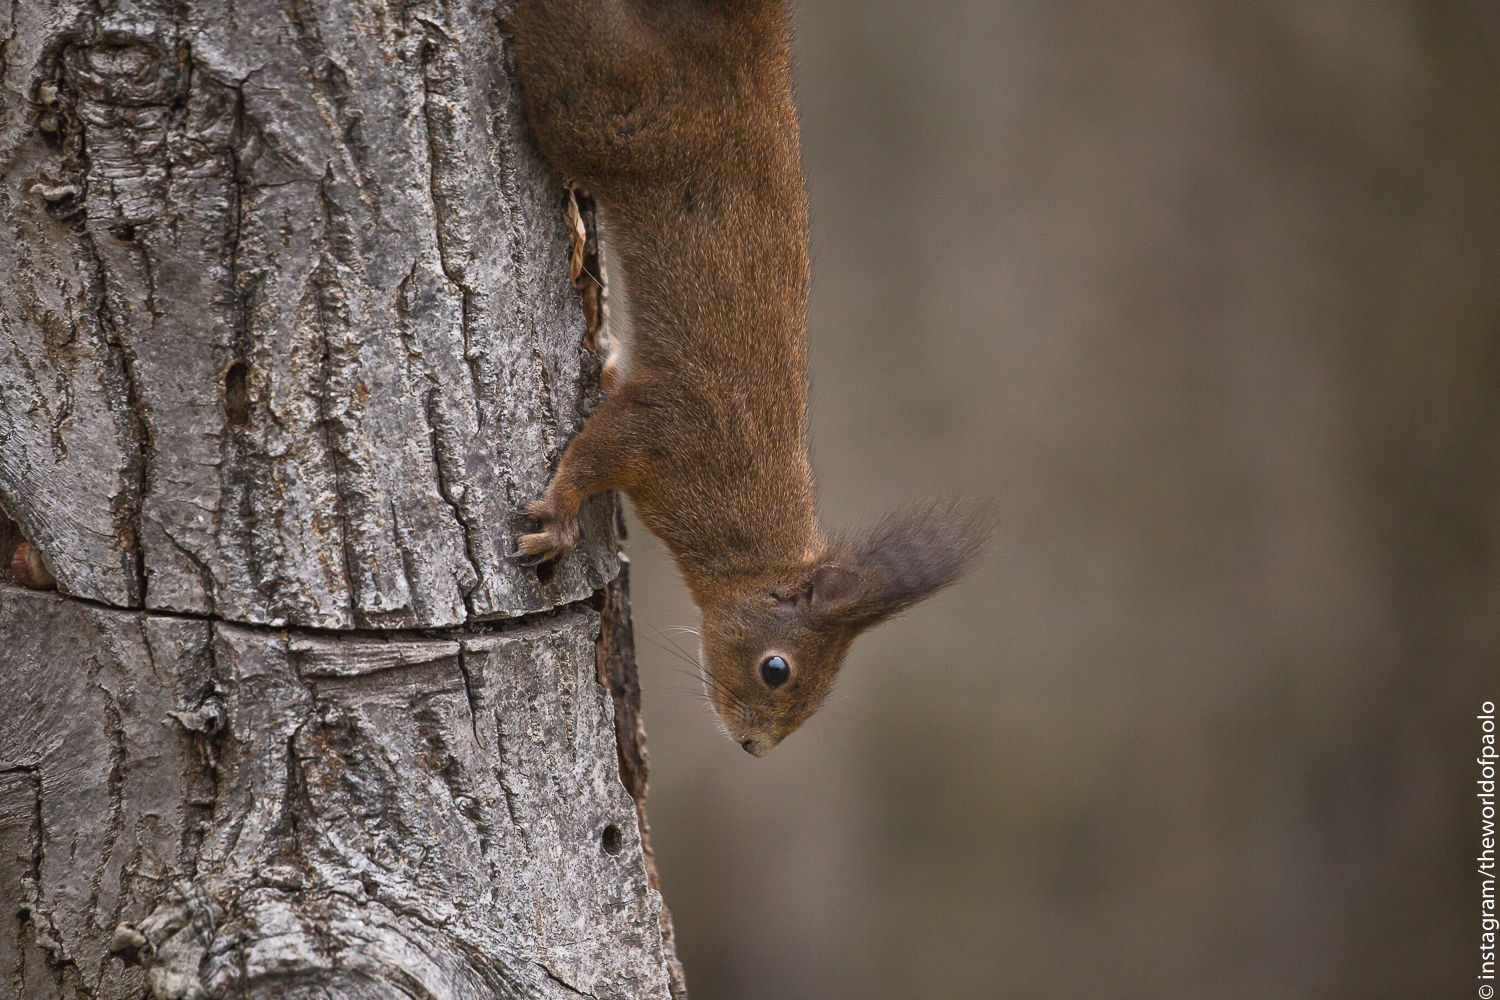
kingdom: Animalia
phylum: Chordata
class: Mammalia
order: Rodentia
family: Sciuridae
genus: Sciurus
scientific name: Sciurus vulgaris
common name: Eurasian red squirrel
